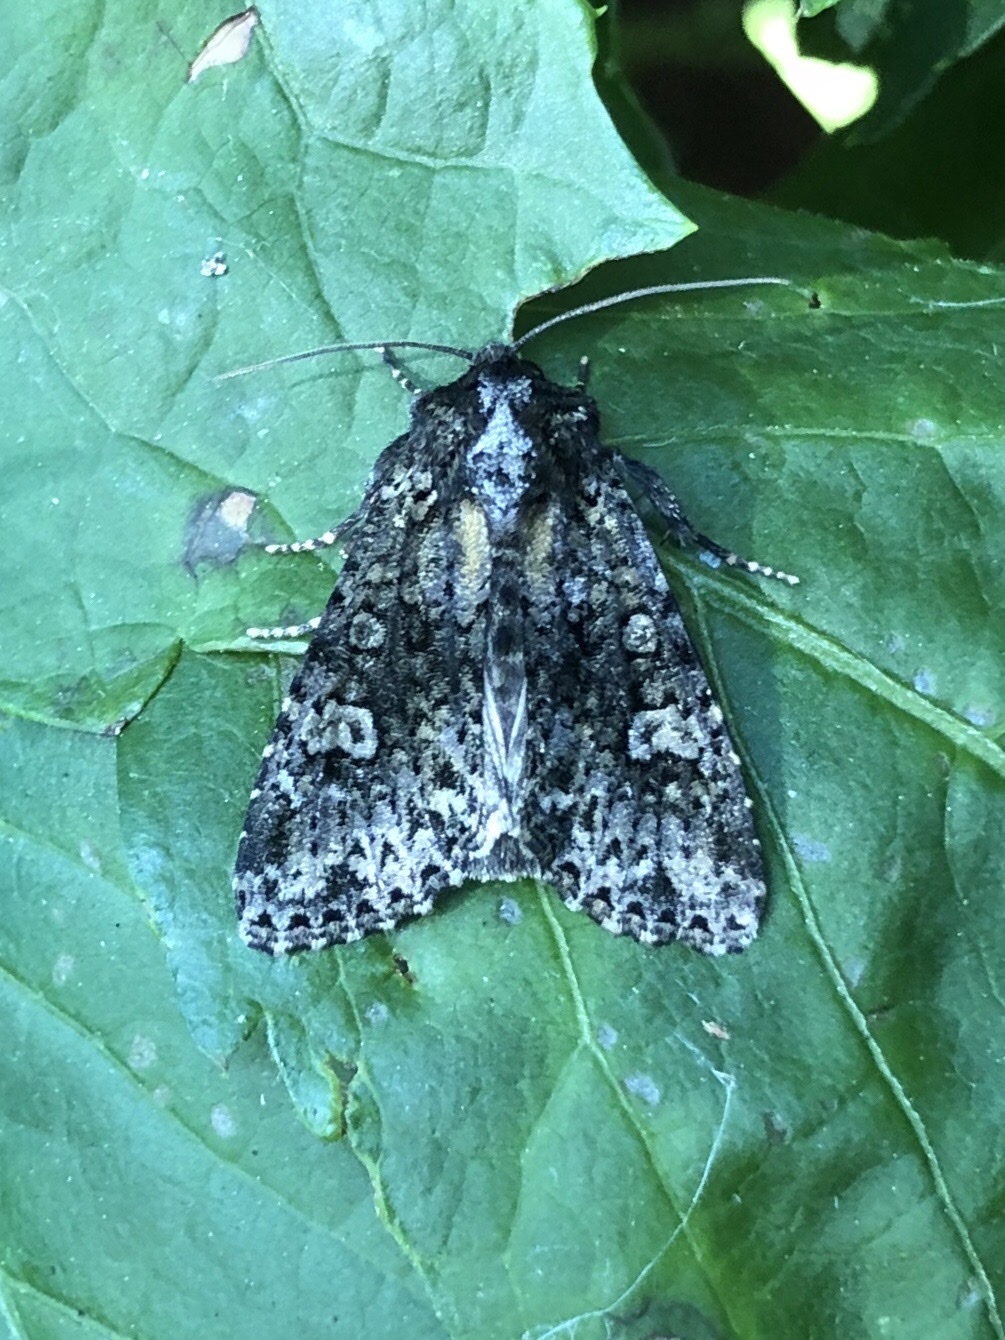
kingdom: Animalia
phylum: Arthropoda
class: Insecta
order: Lepidoptera
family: Noctuidae
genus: Melanchra
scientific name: Melanchra adjuncta
